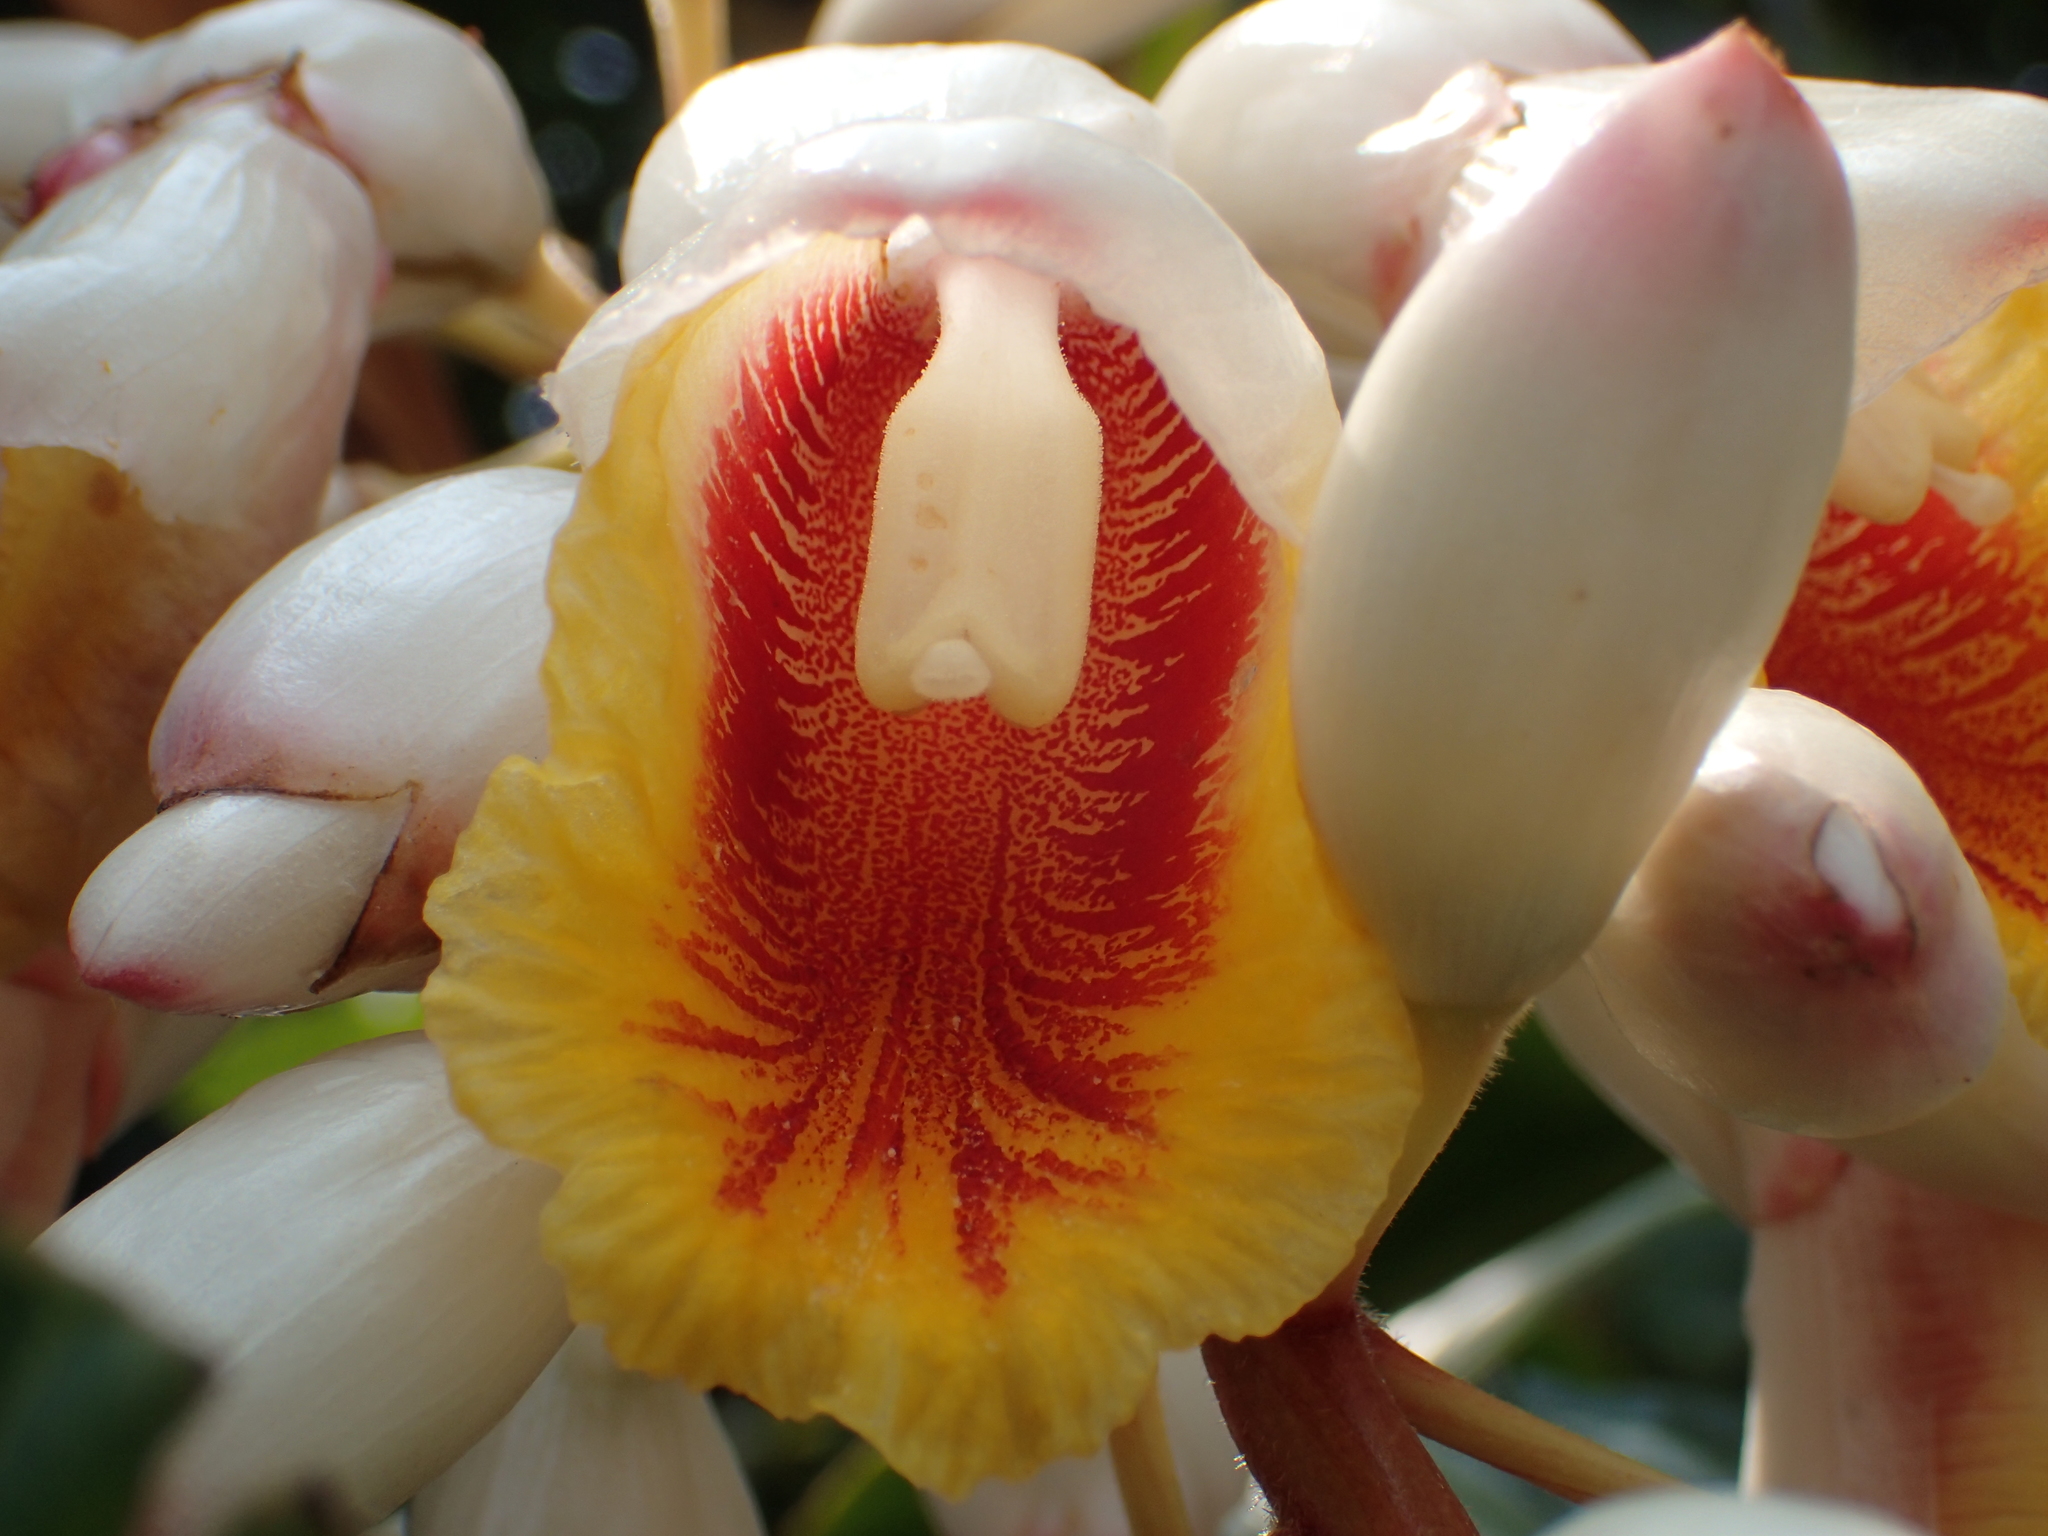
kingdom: Plantae
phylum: Tracheophyta
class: Liliopsida
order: Zingiberales
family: Zingiberaceae
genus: Alpinia
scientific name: Alpinia zerumbet
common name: Shellplant
